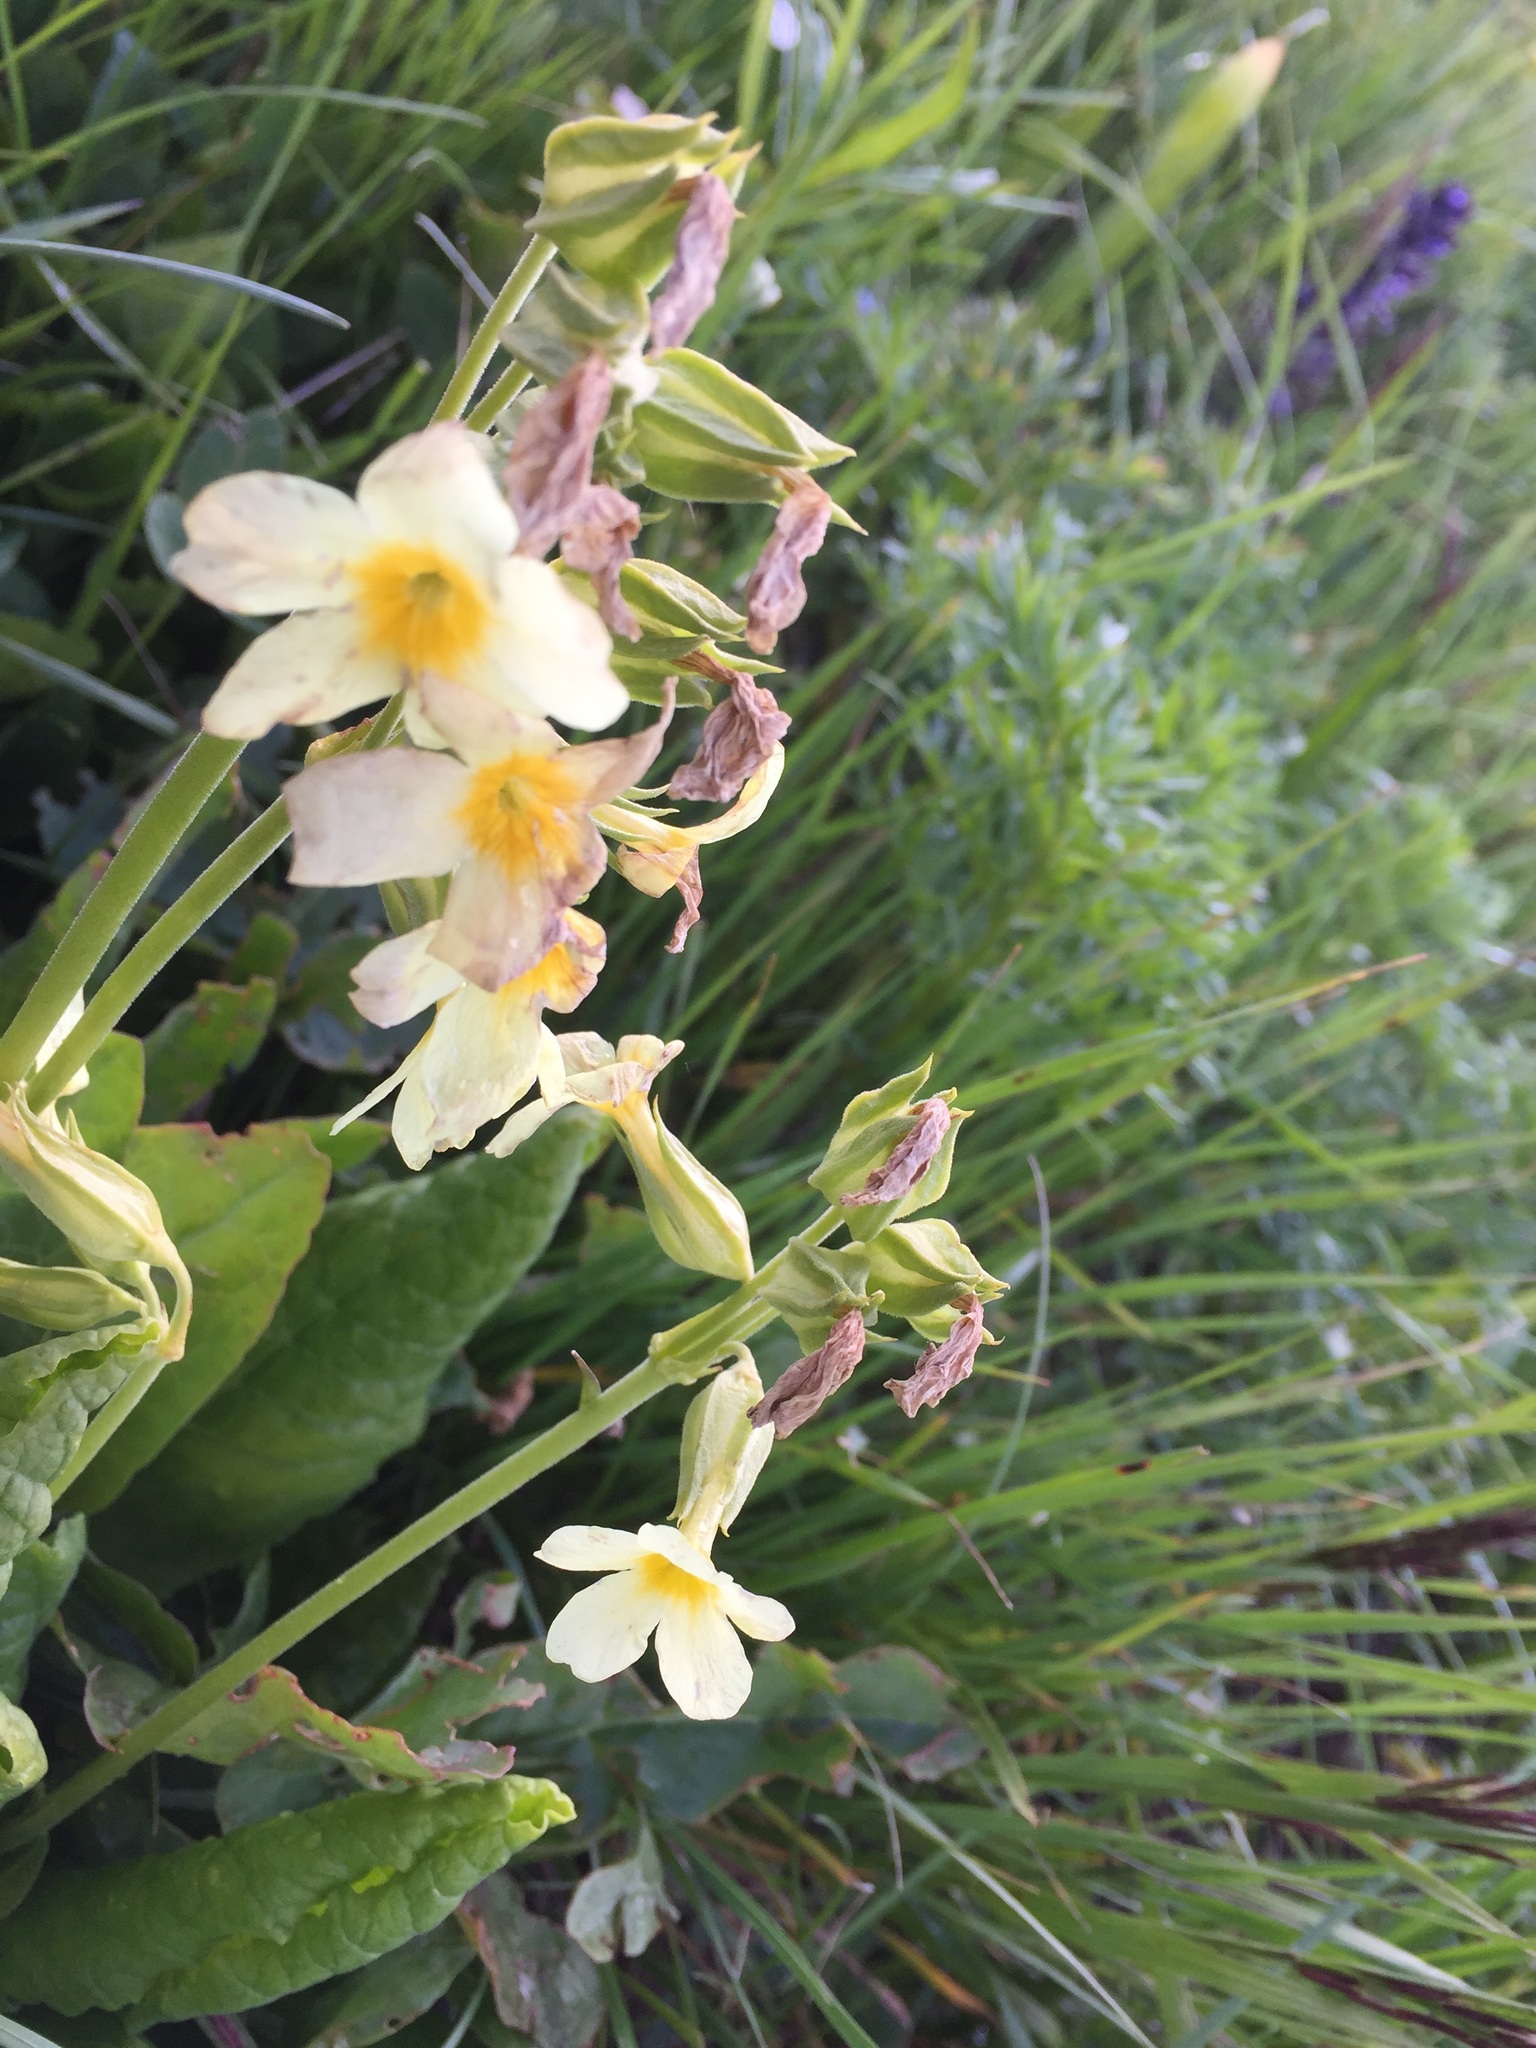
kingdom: Plantae
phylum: Tracheophyta
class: Magnoliopsida
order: Ericales
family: Primulaceae
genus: Primula
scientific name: Primula elatior
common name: Oxlip
